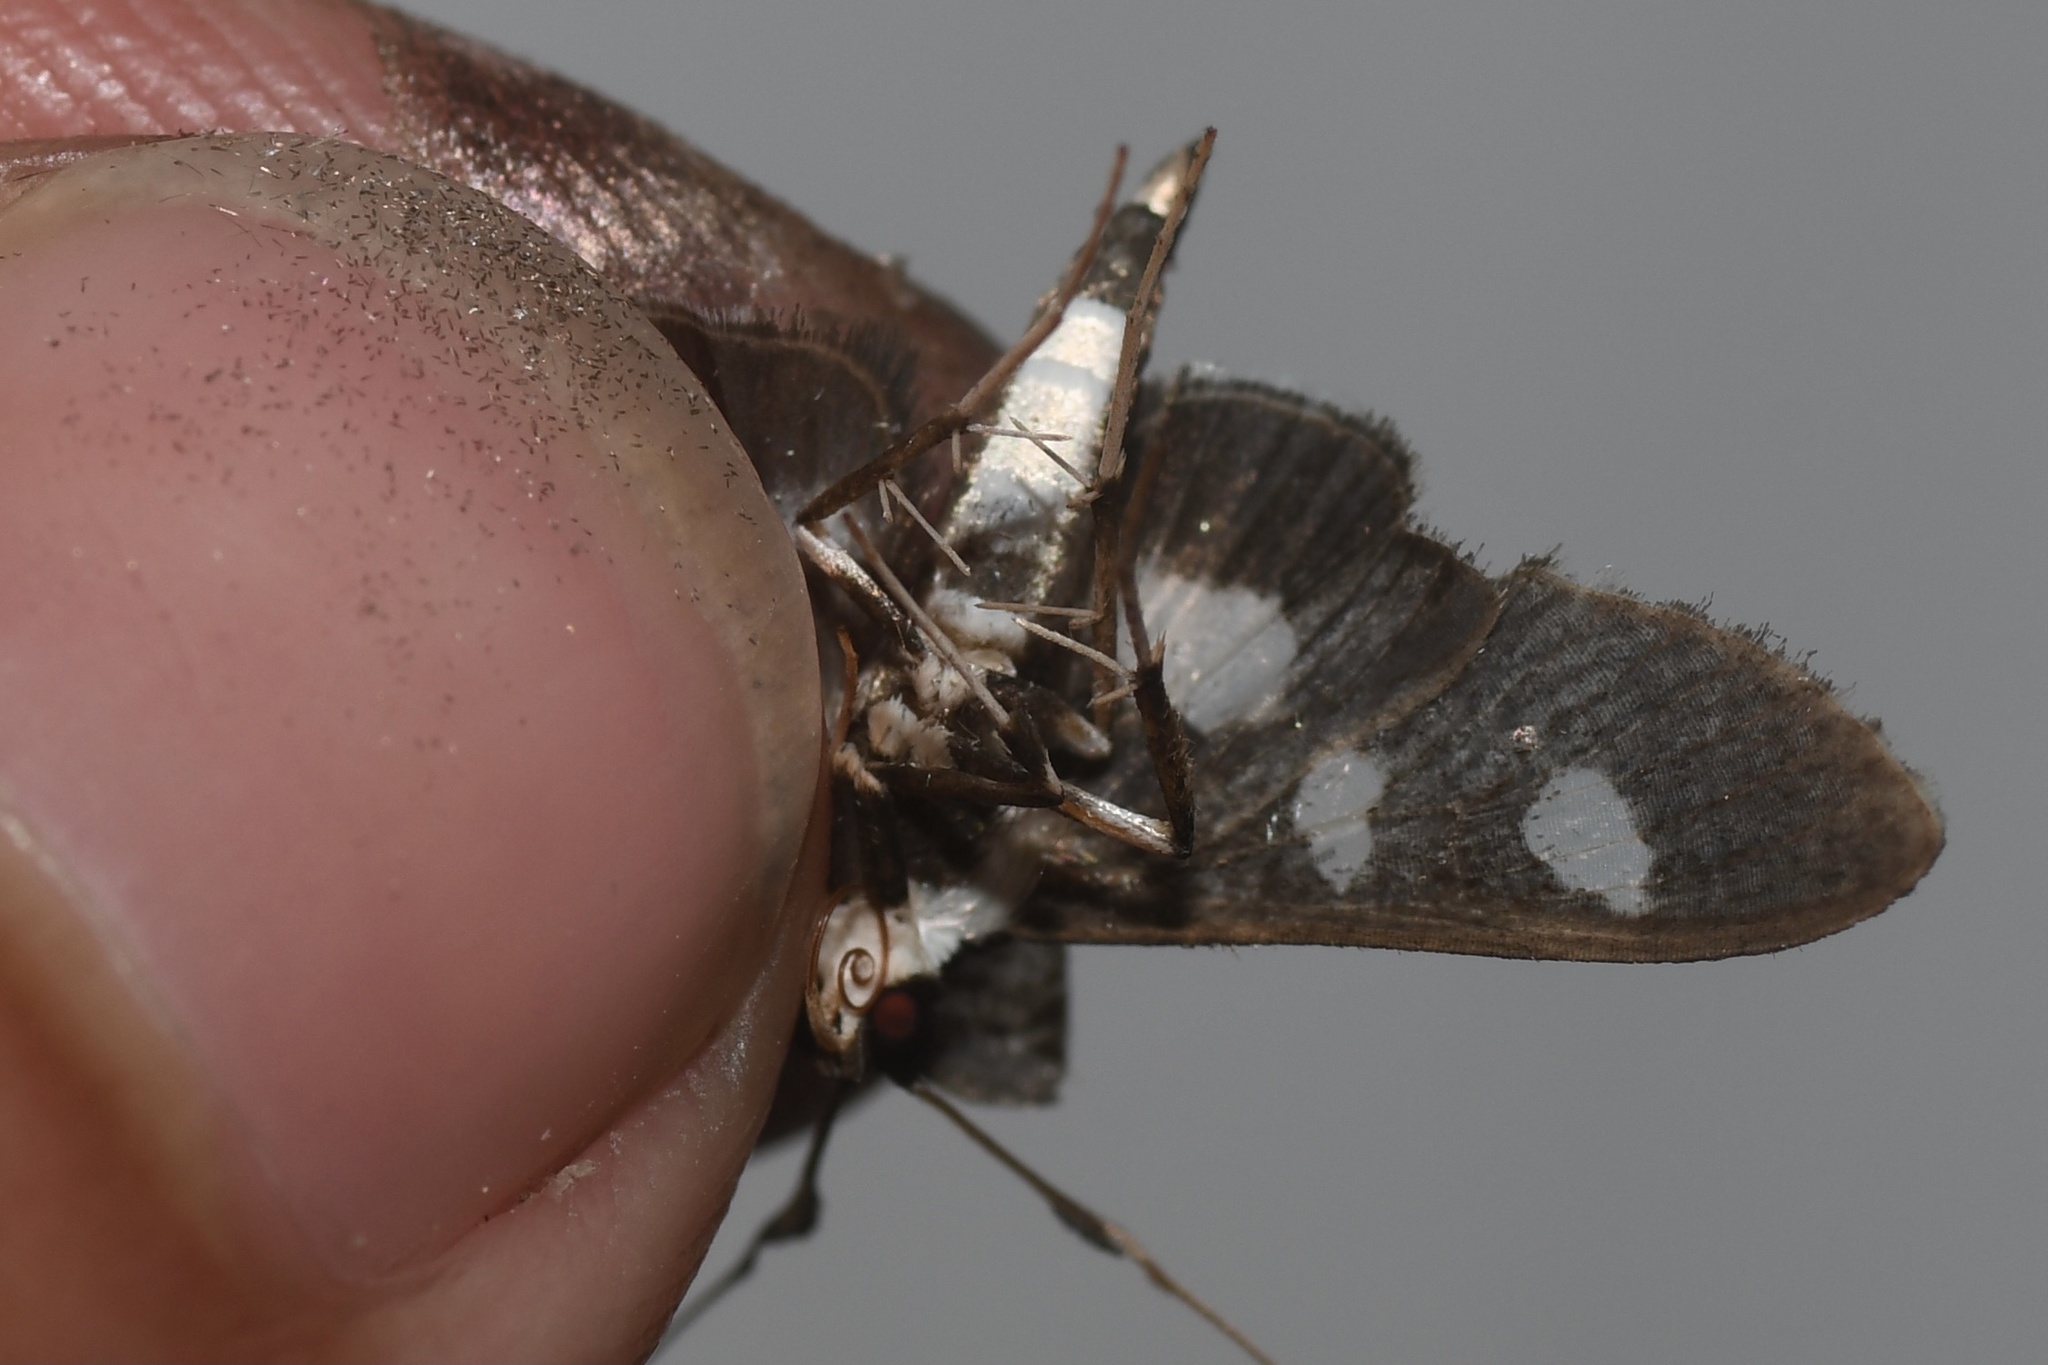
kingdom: Animalia
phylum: Arthropoda
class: Insecta
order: Lepidoptera
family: Crambidae
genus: Desmia
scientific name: Desmia funeralis
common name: Grape leaf folder moth
